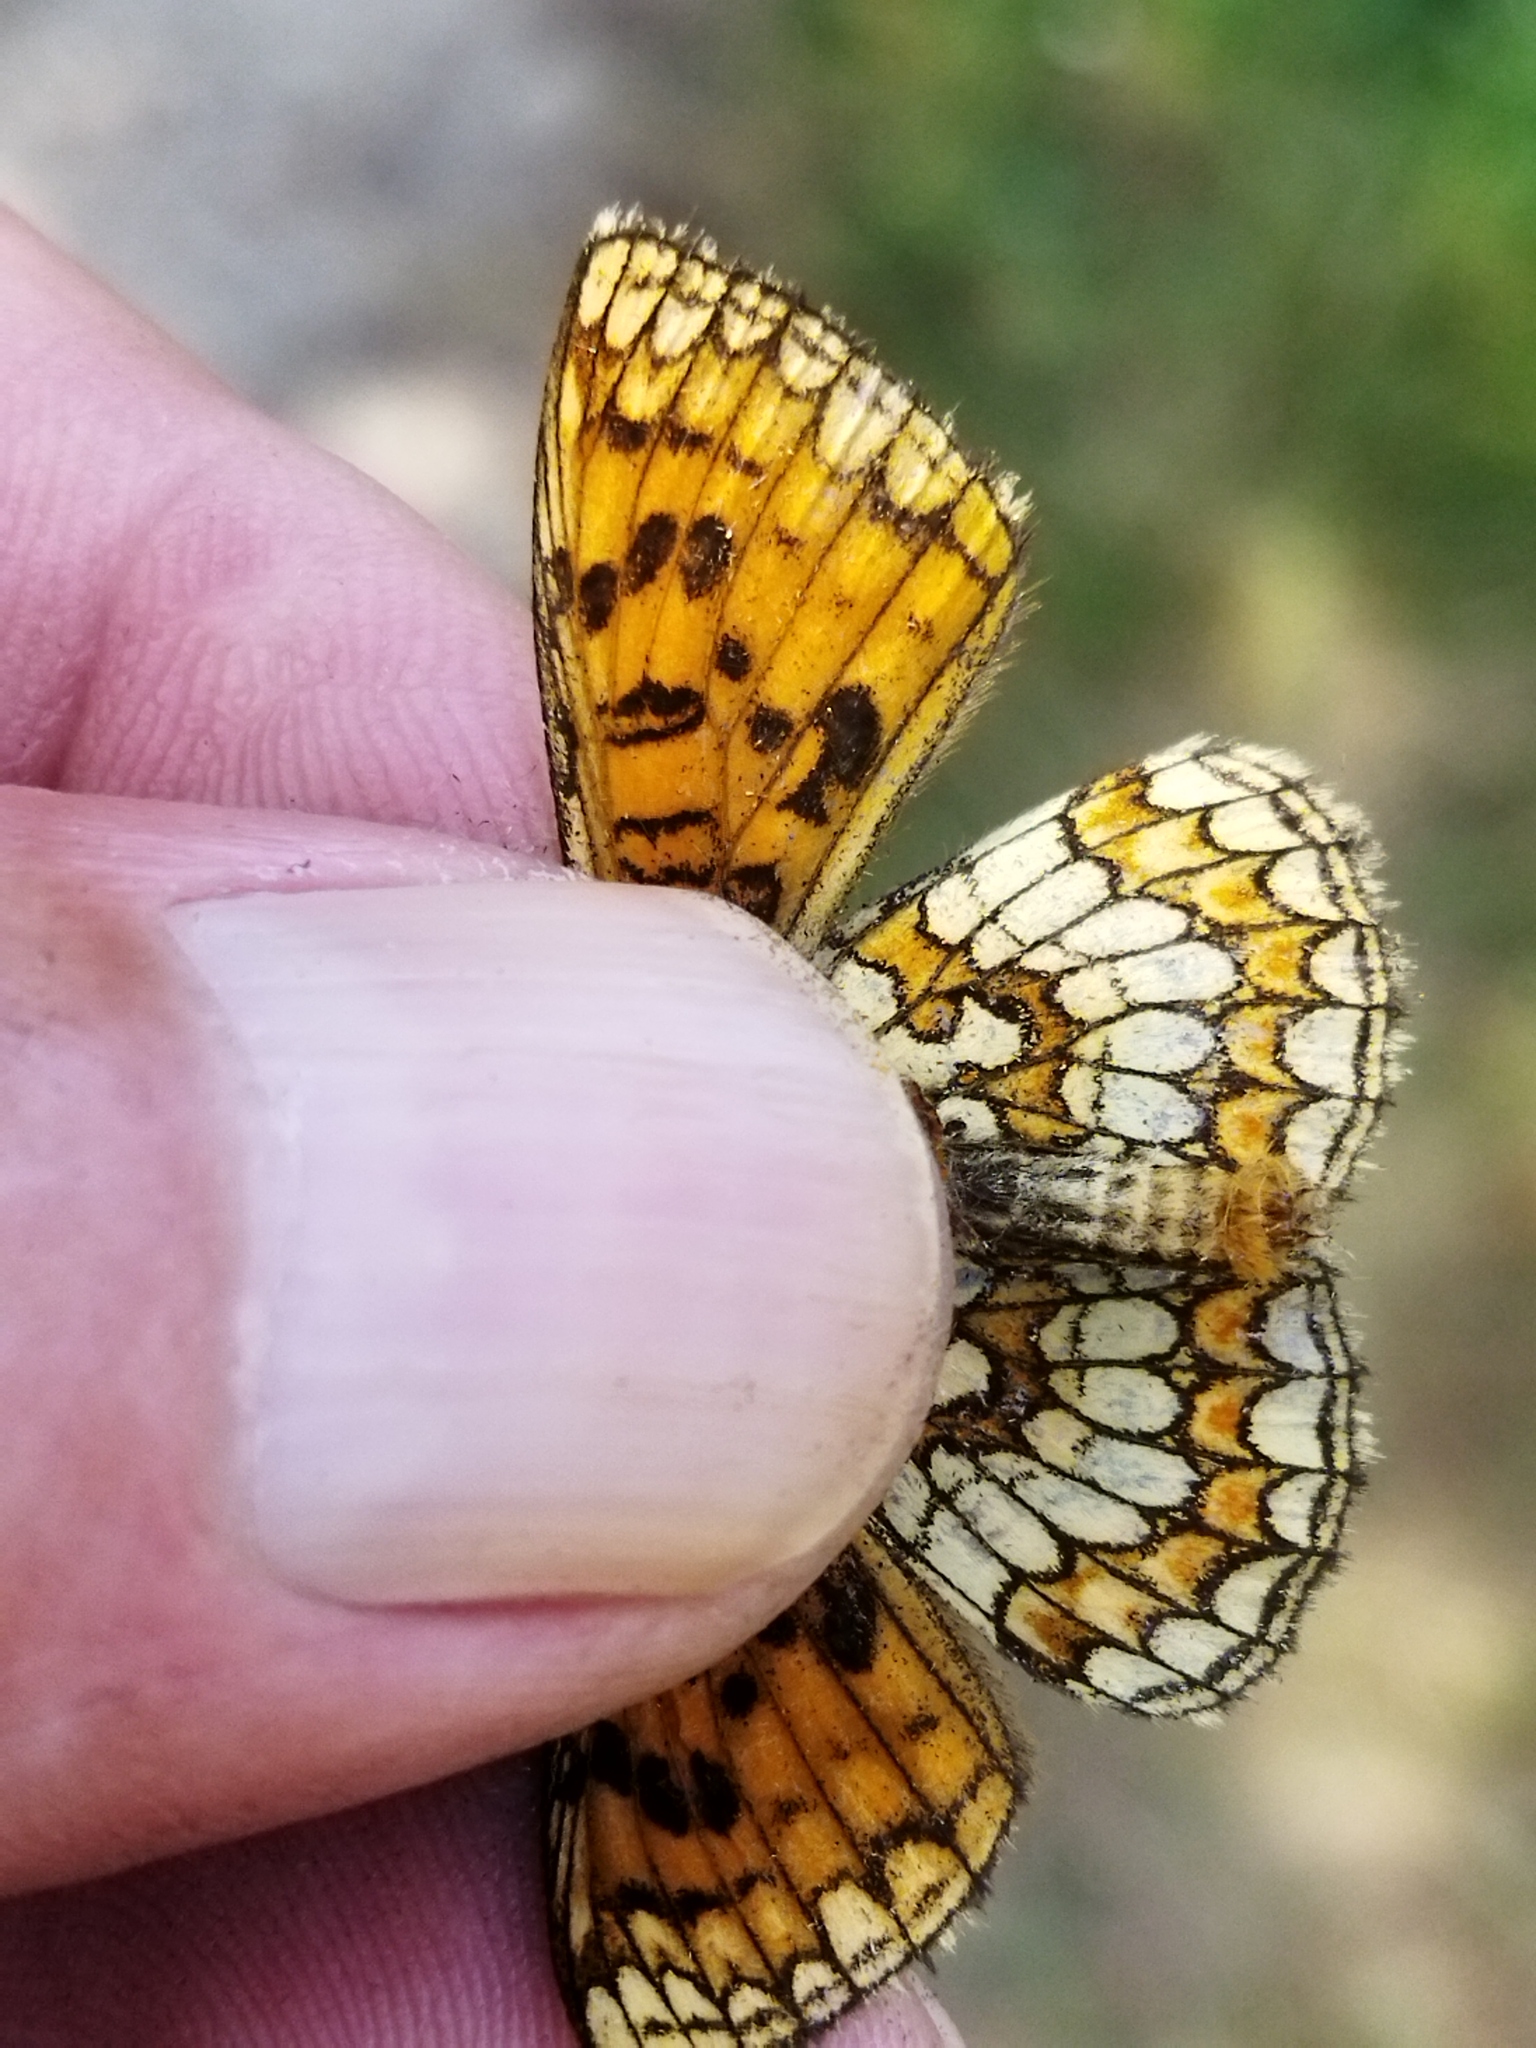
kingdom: Animalia
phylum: Arthropoda
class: Insecta
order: Lepidoptera
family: Nymphalidae
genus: Melitaea
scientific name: Melitaea athalia
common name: Heath fritillary
